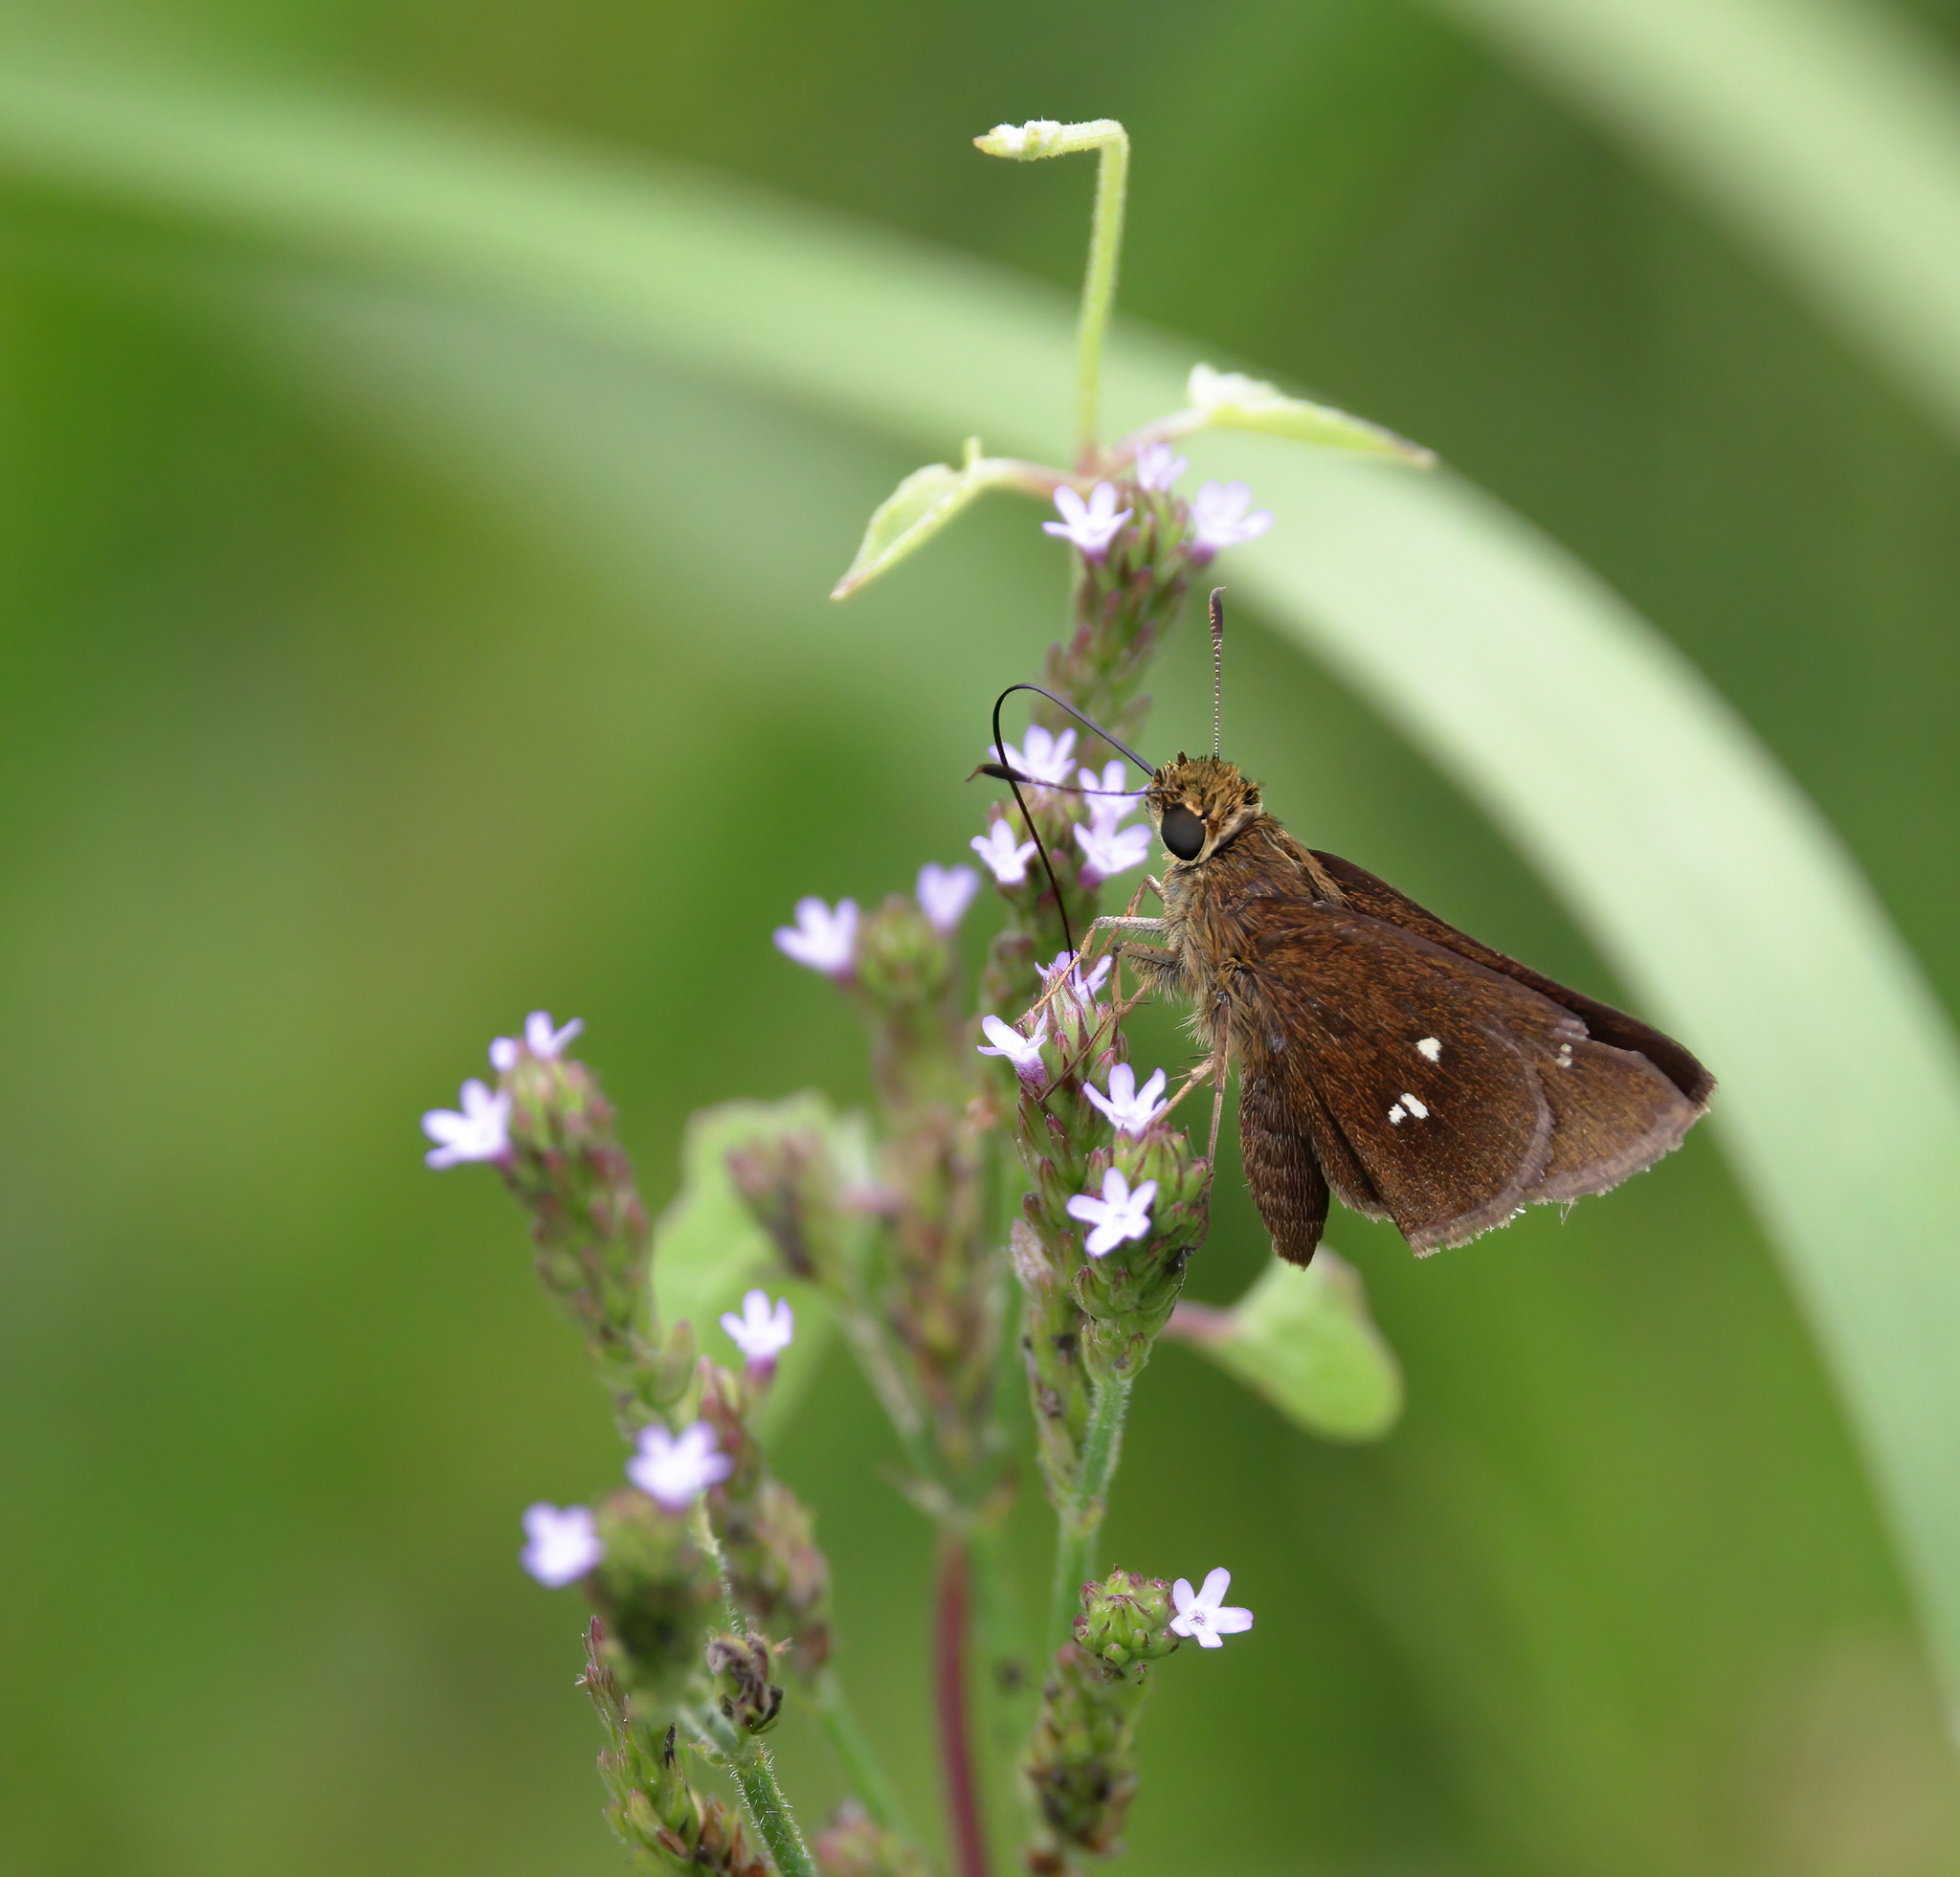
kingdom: Animalia
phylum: Arthropoda
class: Insecta
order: Lepidoptera
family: Hesperiidae
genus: Oligoria
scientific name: Oligoria maculata
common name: Twin-spot skipper
